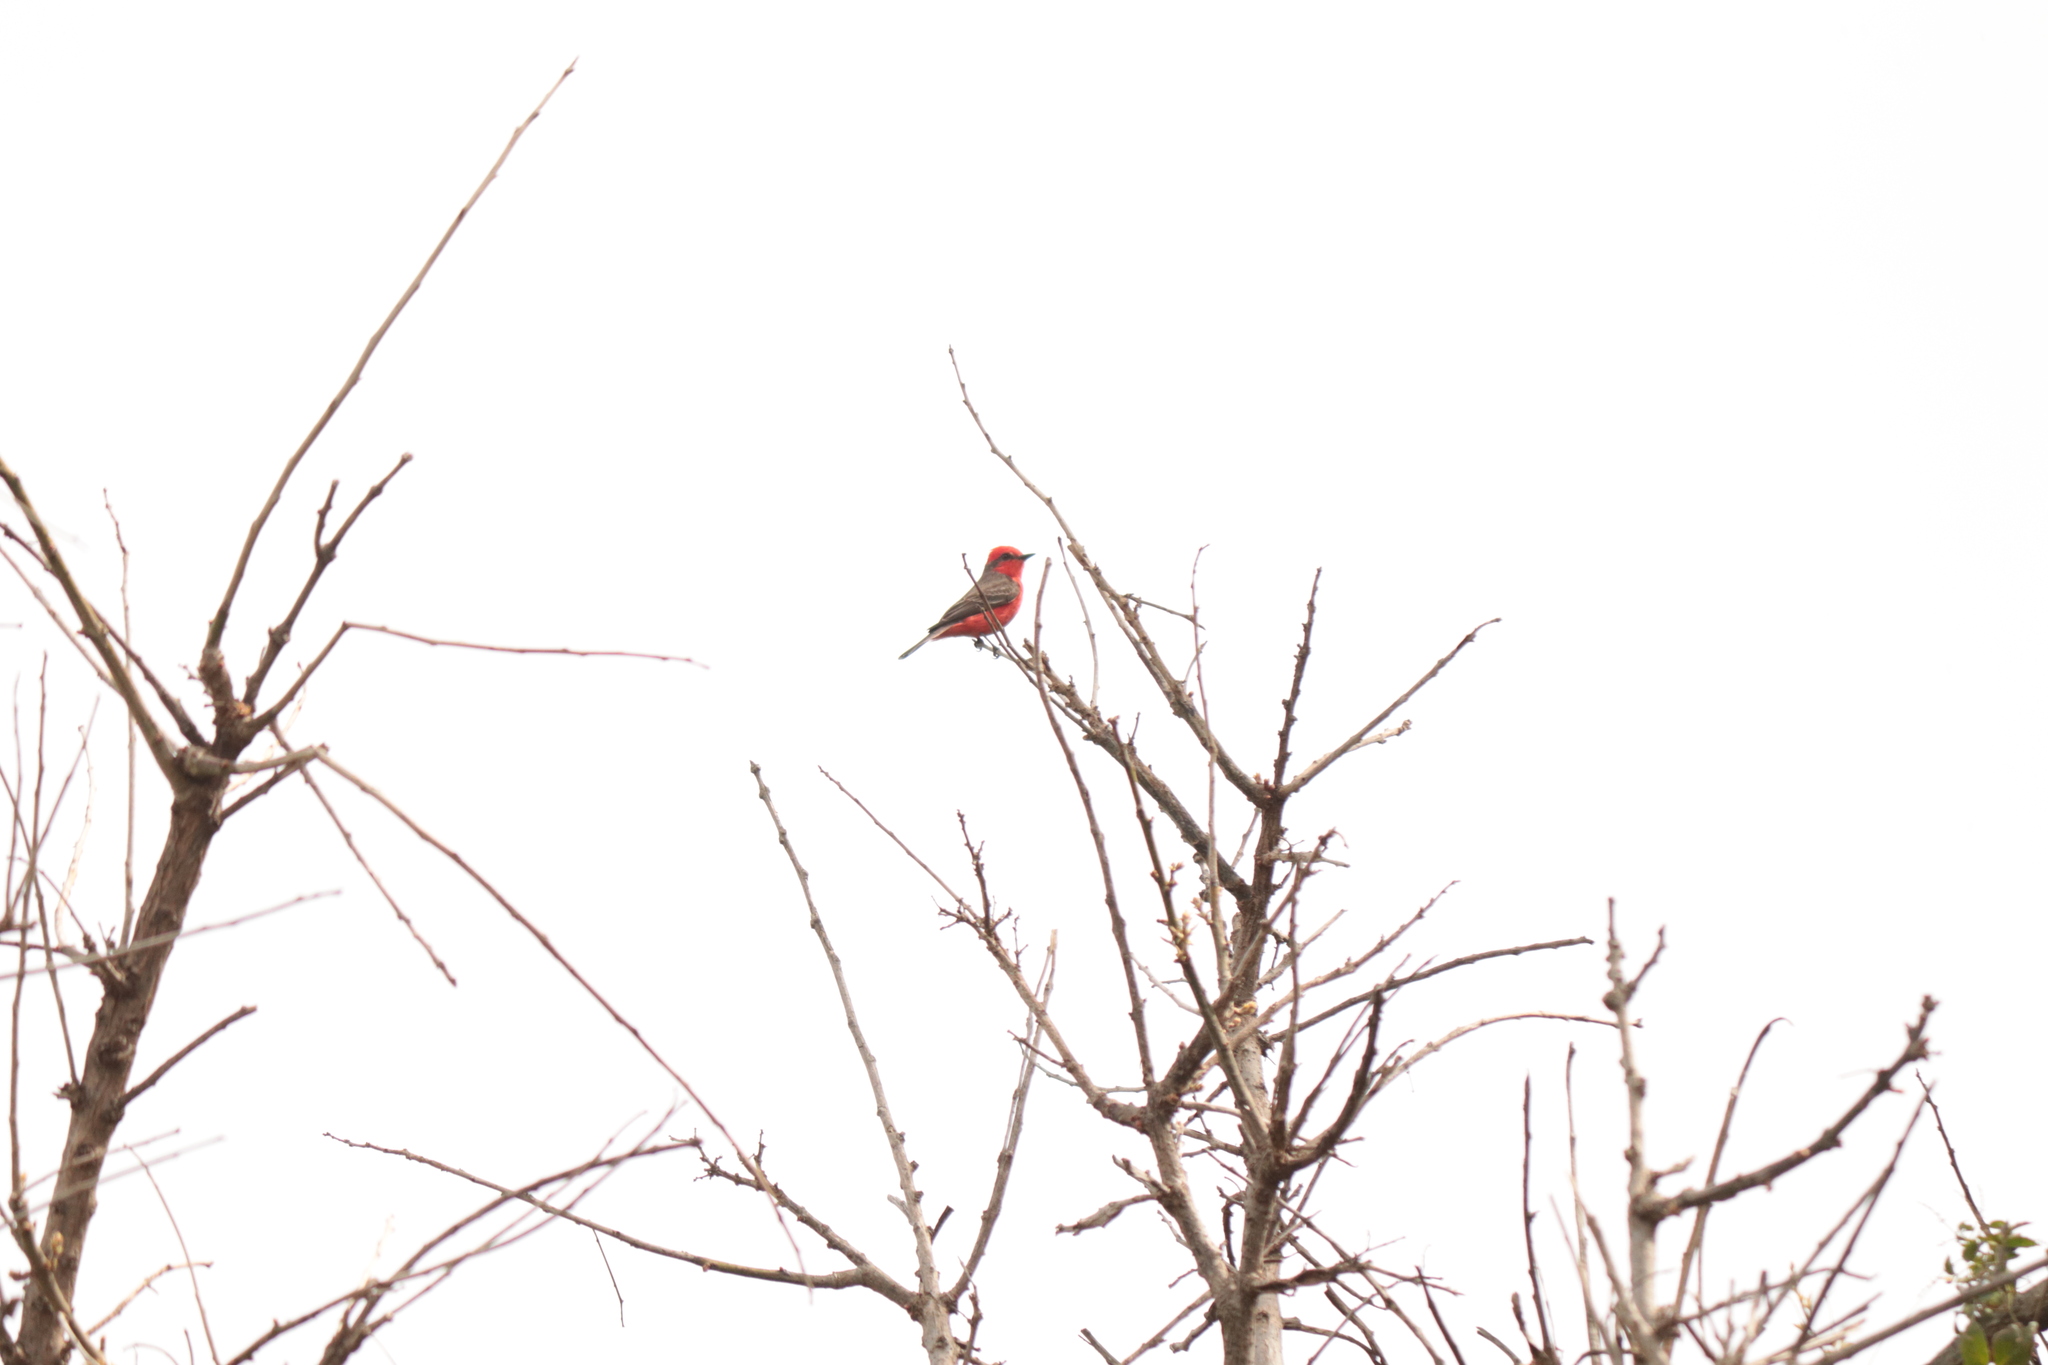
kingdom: Animalia
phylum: Chordata
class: Aves
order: Passeriformes
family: Tyrannidae
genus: Pyrocephalus
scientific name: Pyrocephalus rubinus
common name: Vermilion flycatcher
